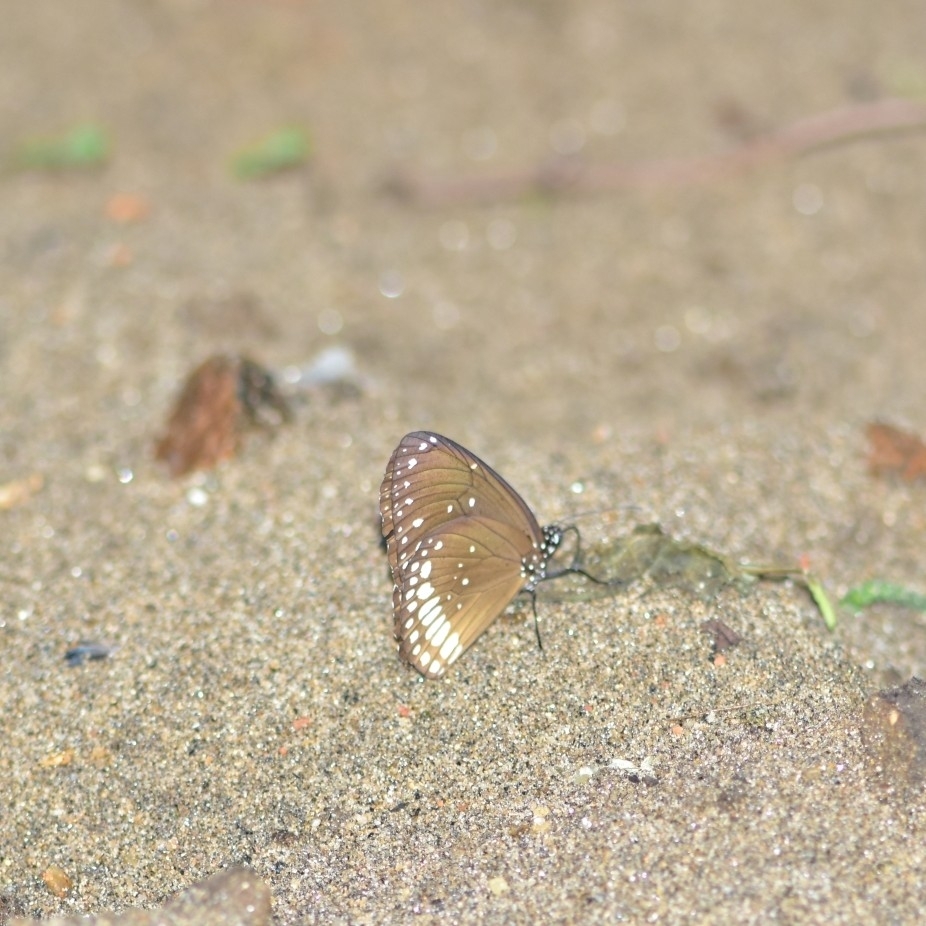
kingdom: Animalia
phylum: Arthropoda
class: Insecta
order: Lepidoptera
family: Nymphalidae
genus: Euploea
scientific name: Euploea core
